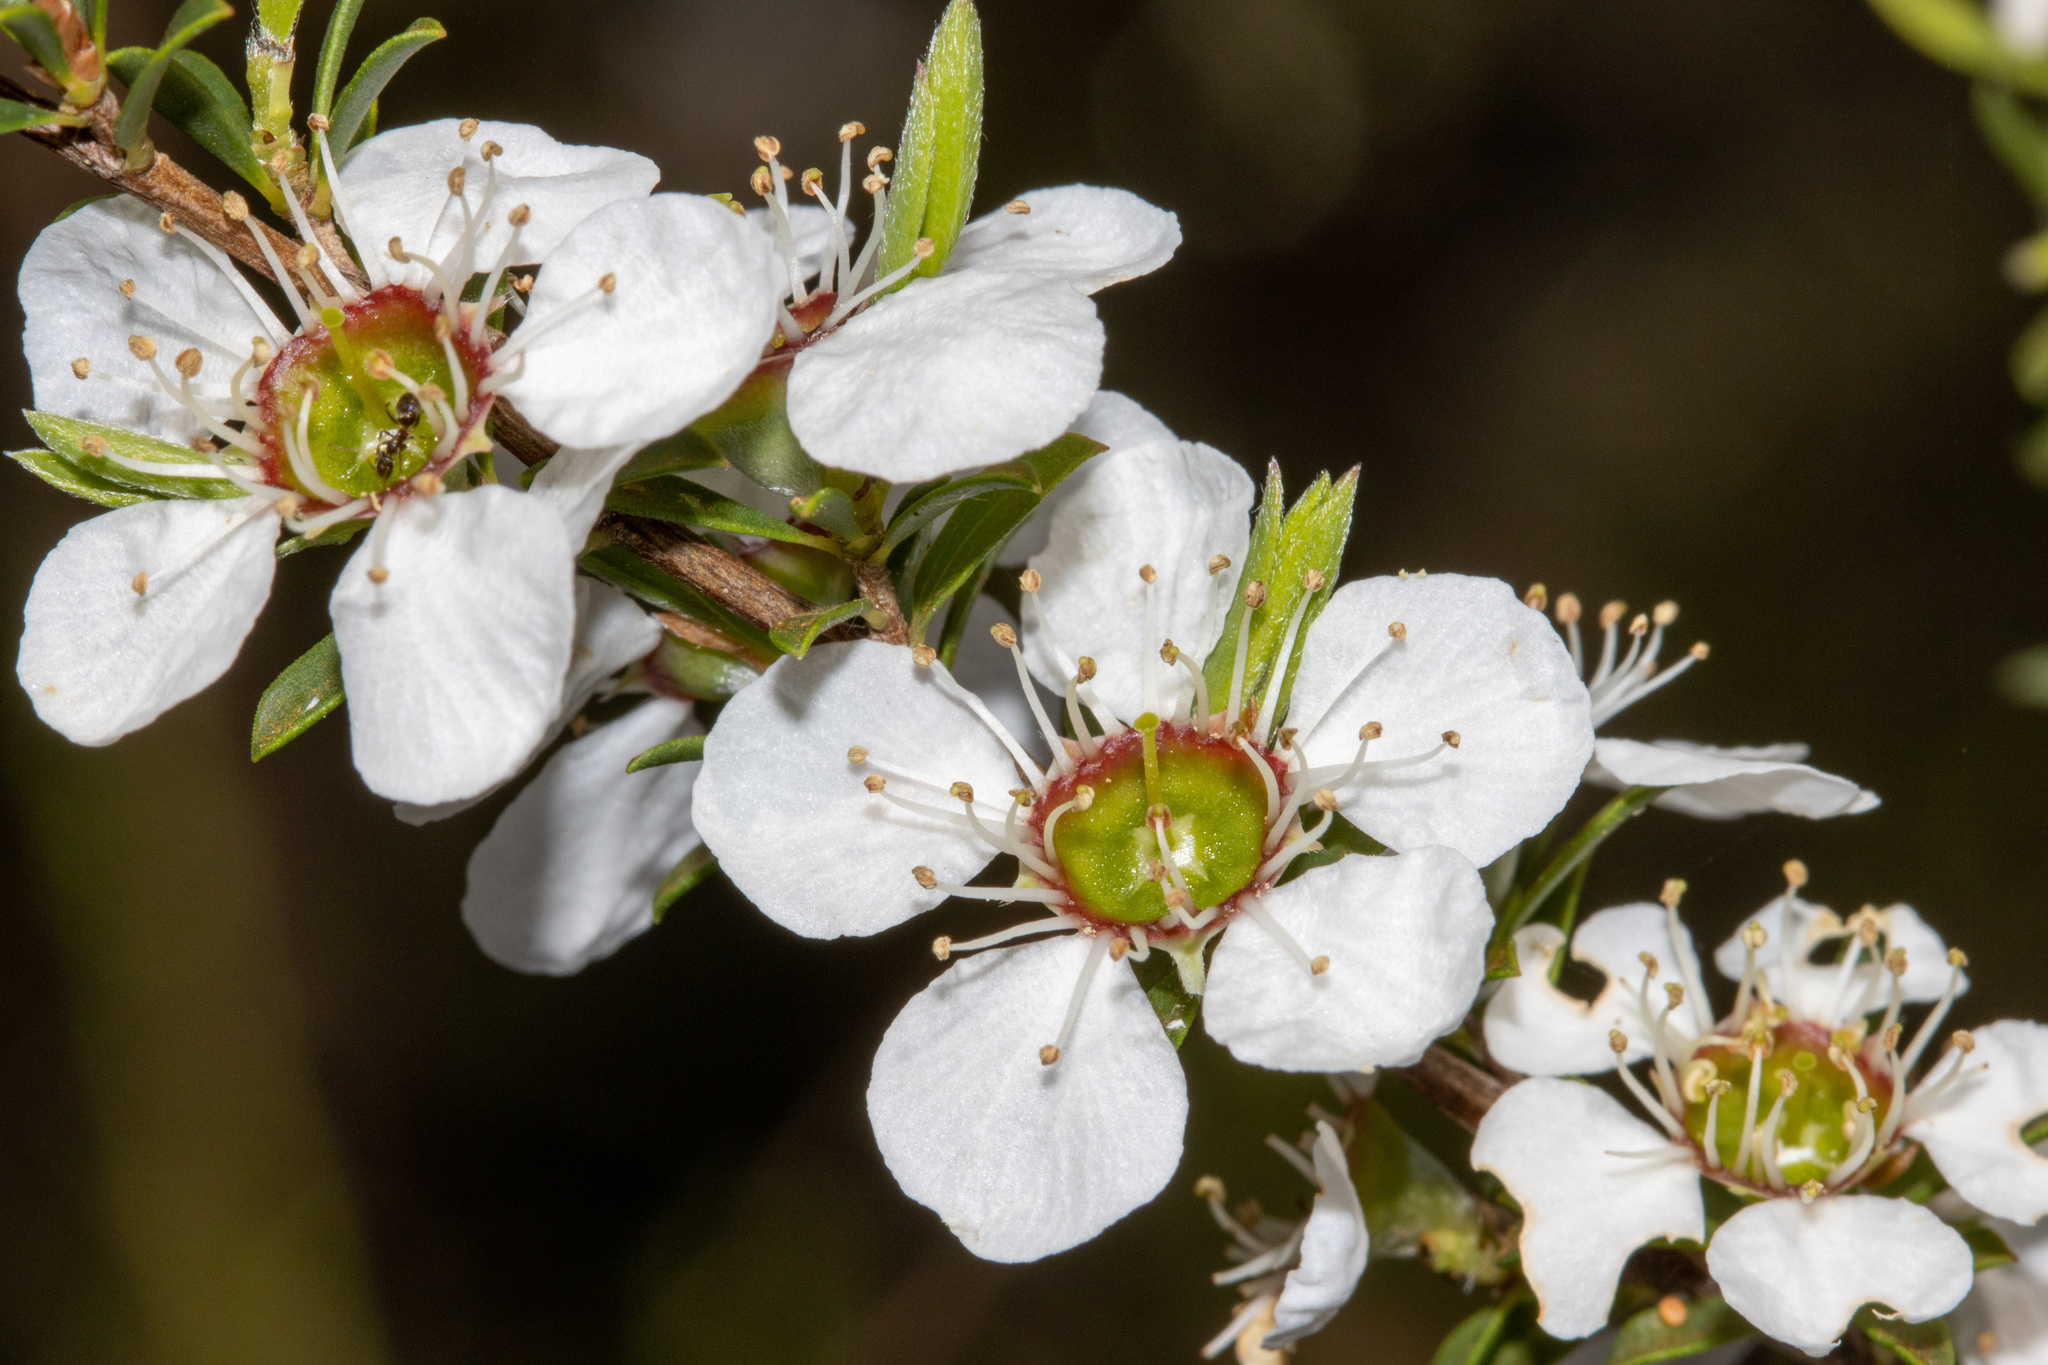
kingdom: Plantae
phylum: Tracheophyta
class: Magnoliopsida
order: Myrtales
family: Myrtaceae
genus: Leptospermum
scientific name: Leptospermum myrsinoides
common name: Heath teatree
